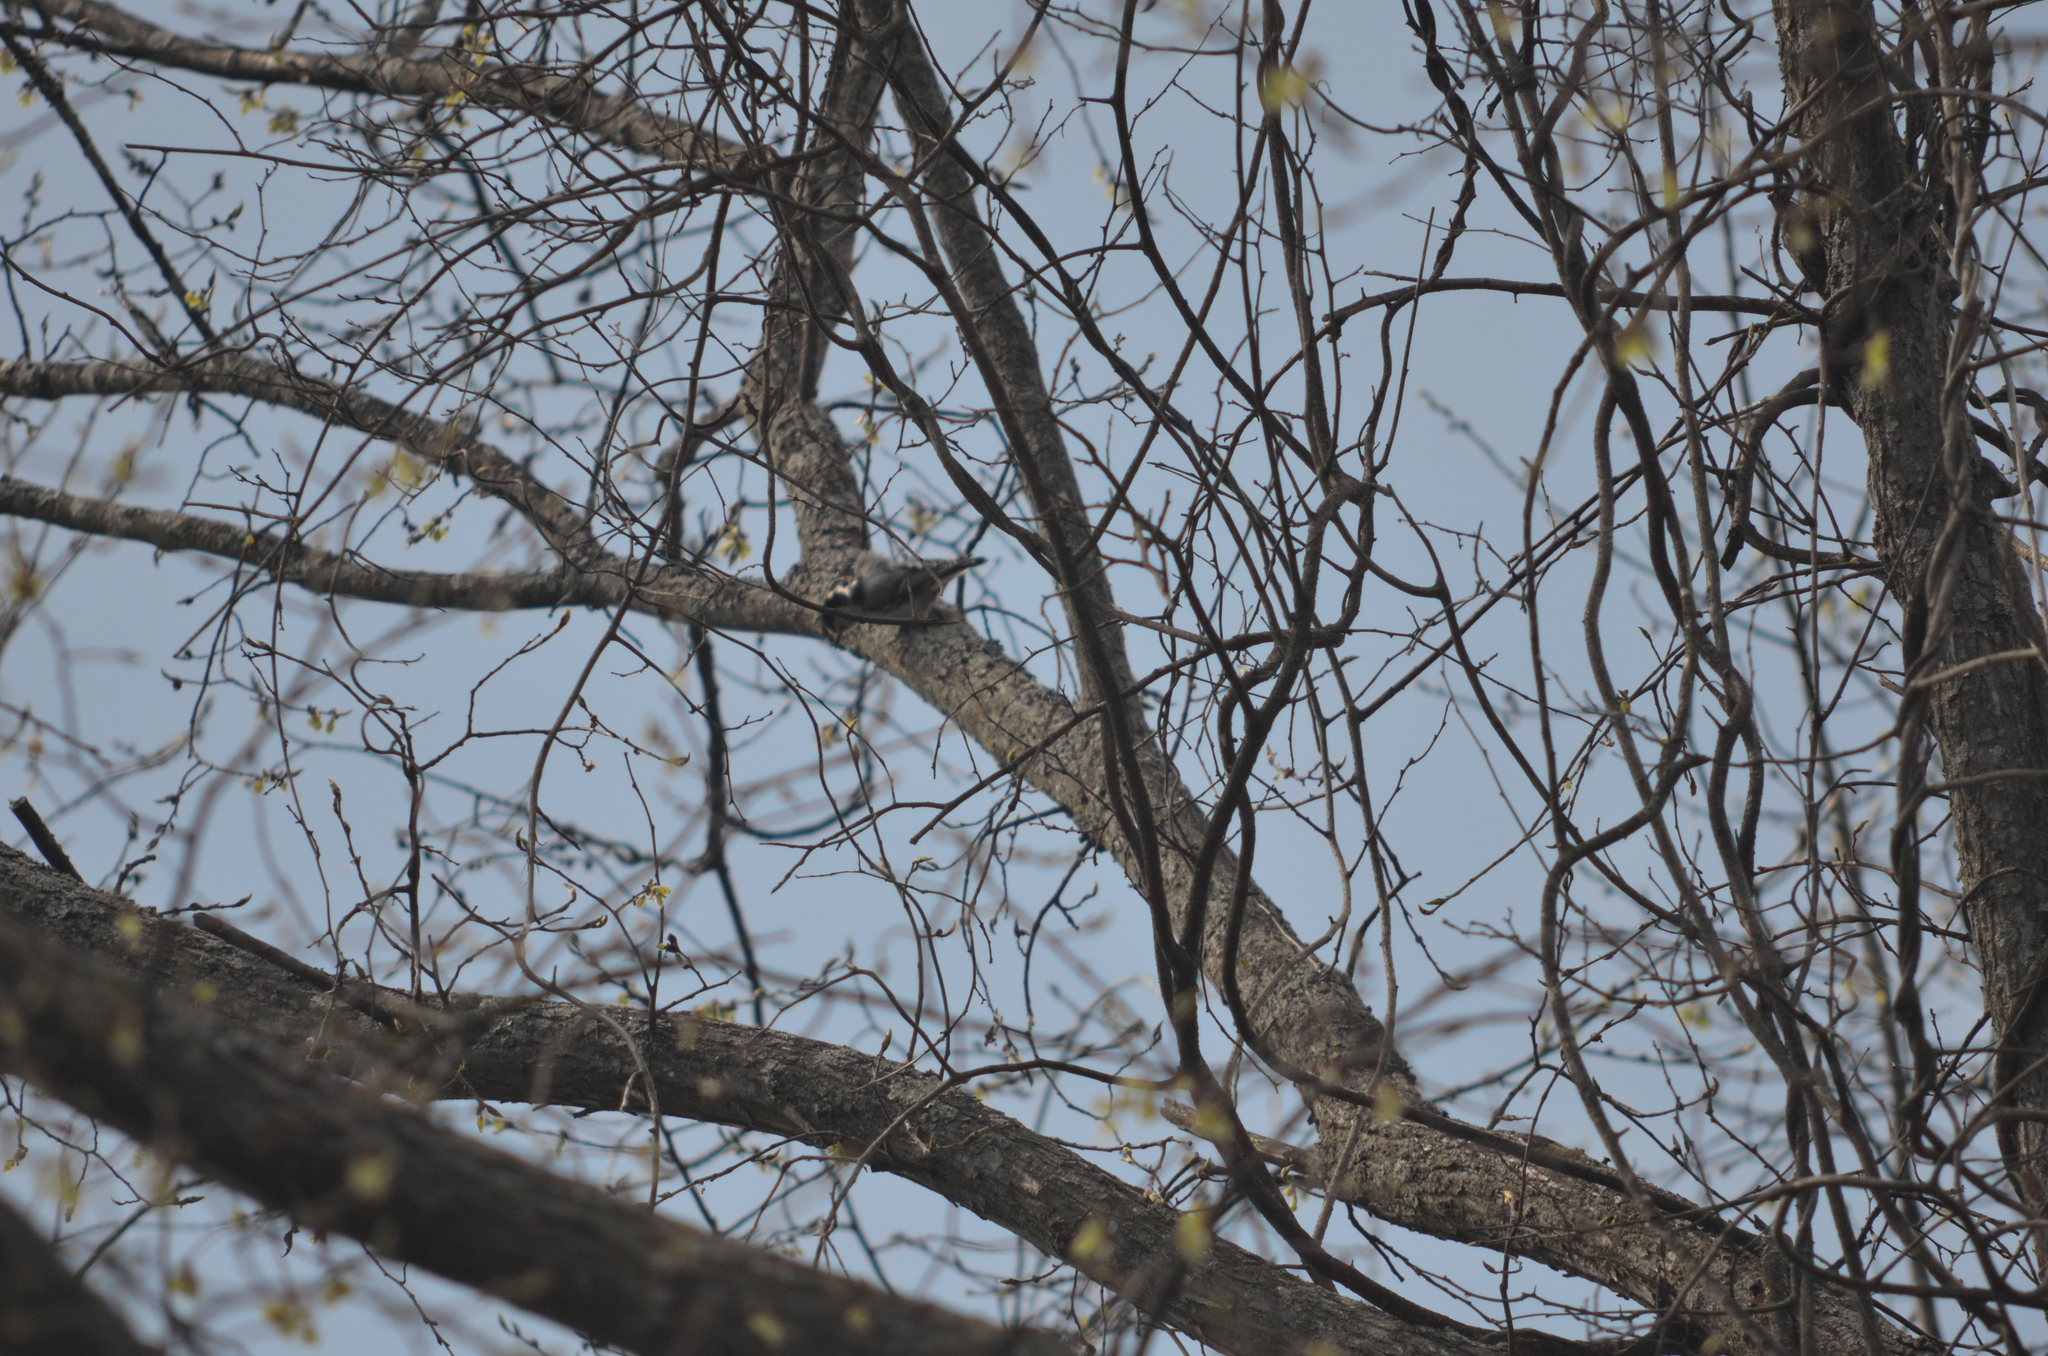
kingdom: Animalia
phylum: Chordata
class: Aves
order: Passeriformes
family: Sittidae
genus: Sitta
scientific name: Sitta carolinensis
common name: White-breasted nuthatch
